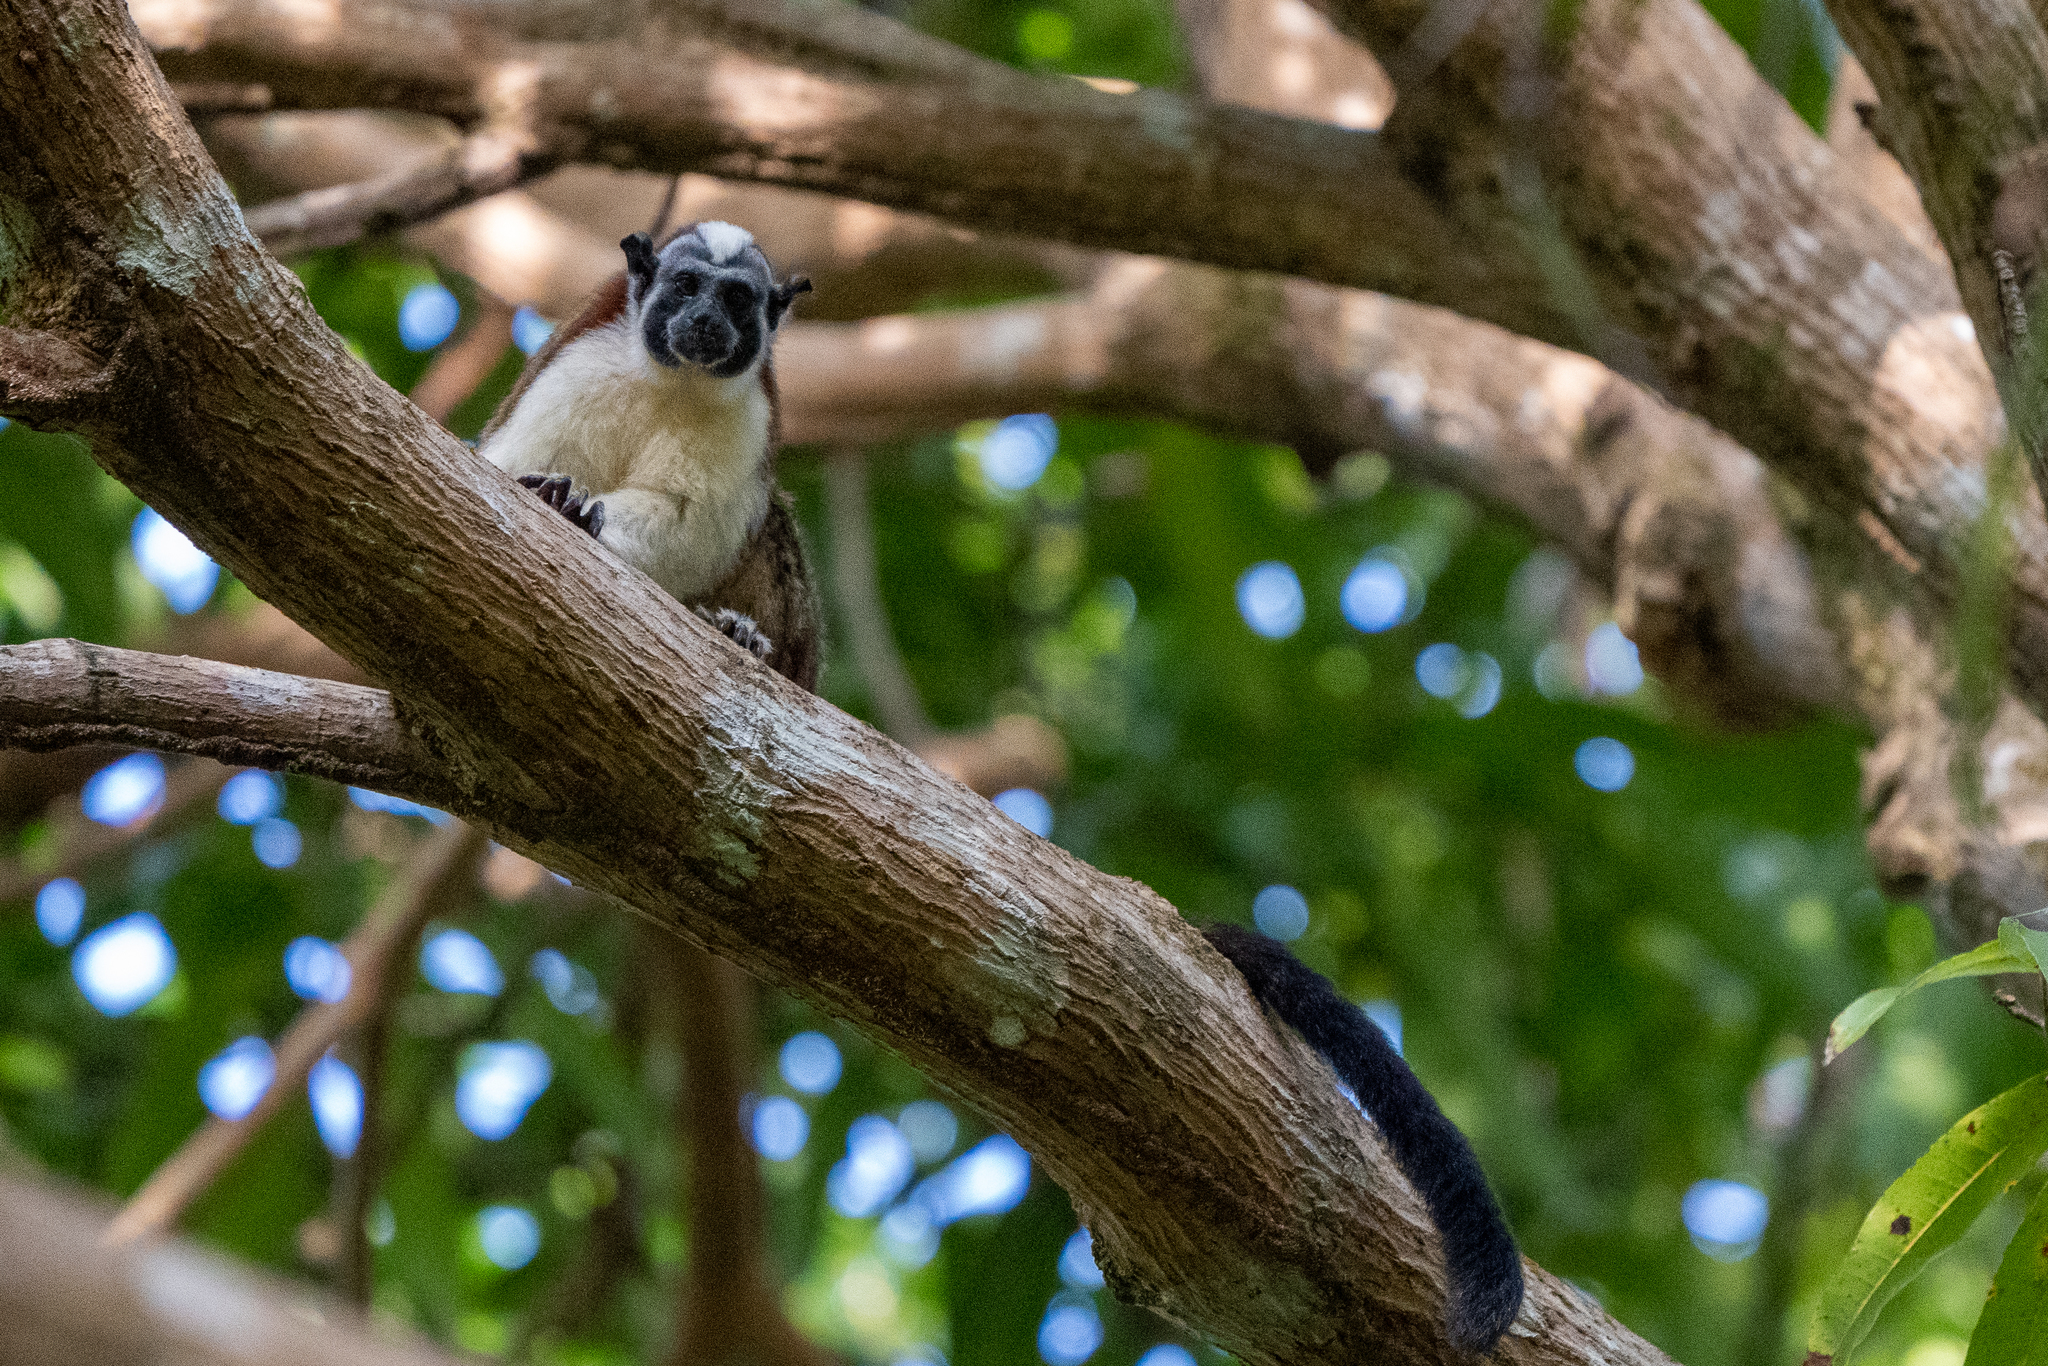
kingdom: Animalia
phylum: Chordata
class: Mammalia
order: Primates
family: Callitrichidae
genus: Saguinus
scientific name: Saguinus geoffroyi
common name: Geoffroy s tamarin
